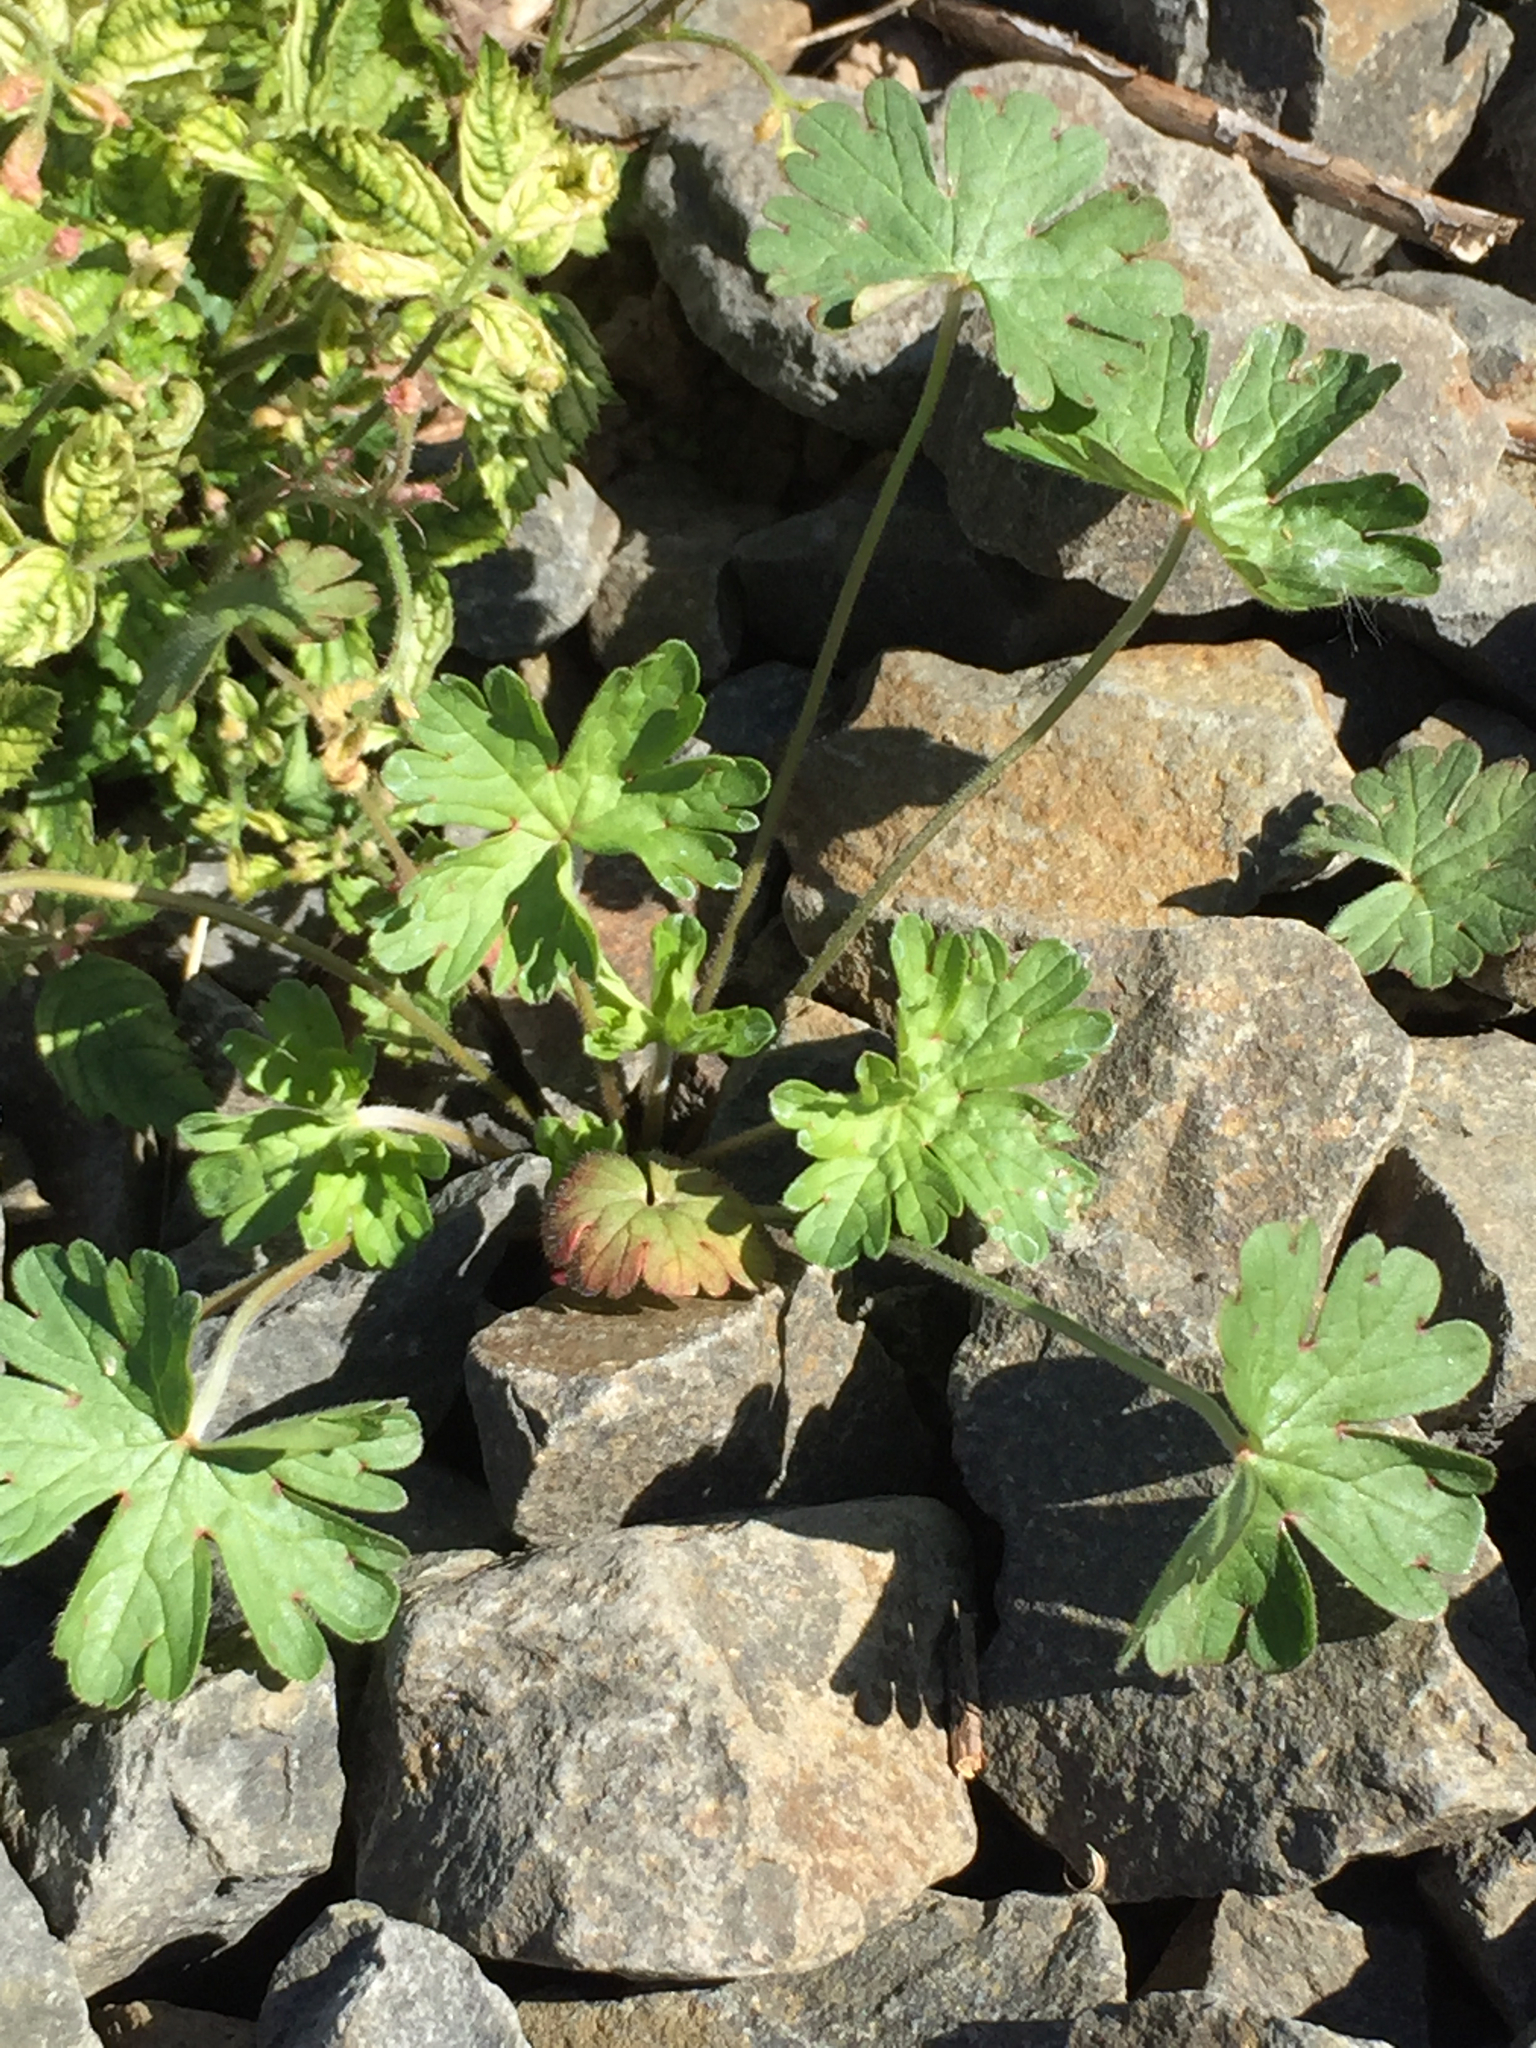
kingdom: Plantae
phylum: Tracheophyta
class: Magnoliopsida
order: Geraniales
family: Geraniaceae
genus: Geranium
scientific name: Geranium molle
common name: Dove's-foot crane's-bill
